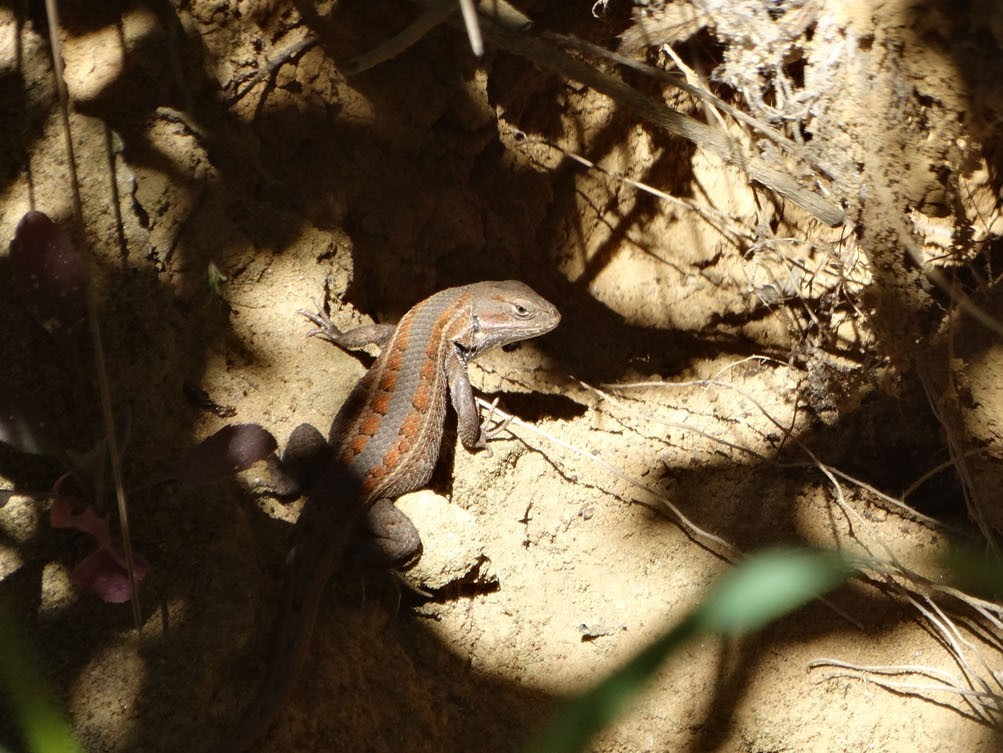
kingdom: Animalia
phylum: Chordata
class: Squamata
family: Phrynosomatidae
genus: Sceloporus
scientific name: Sceloporus subniger
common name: Plateau bunchgrass lizard
